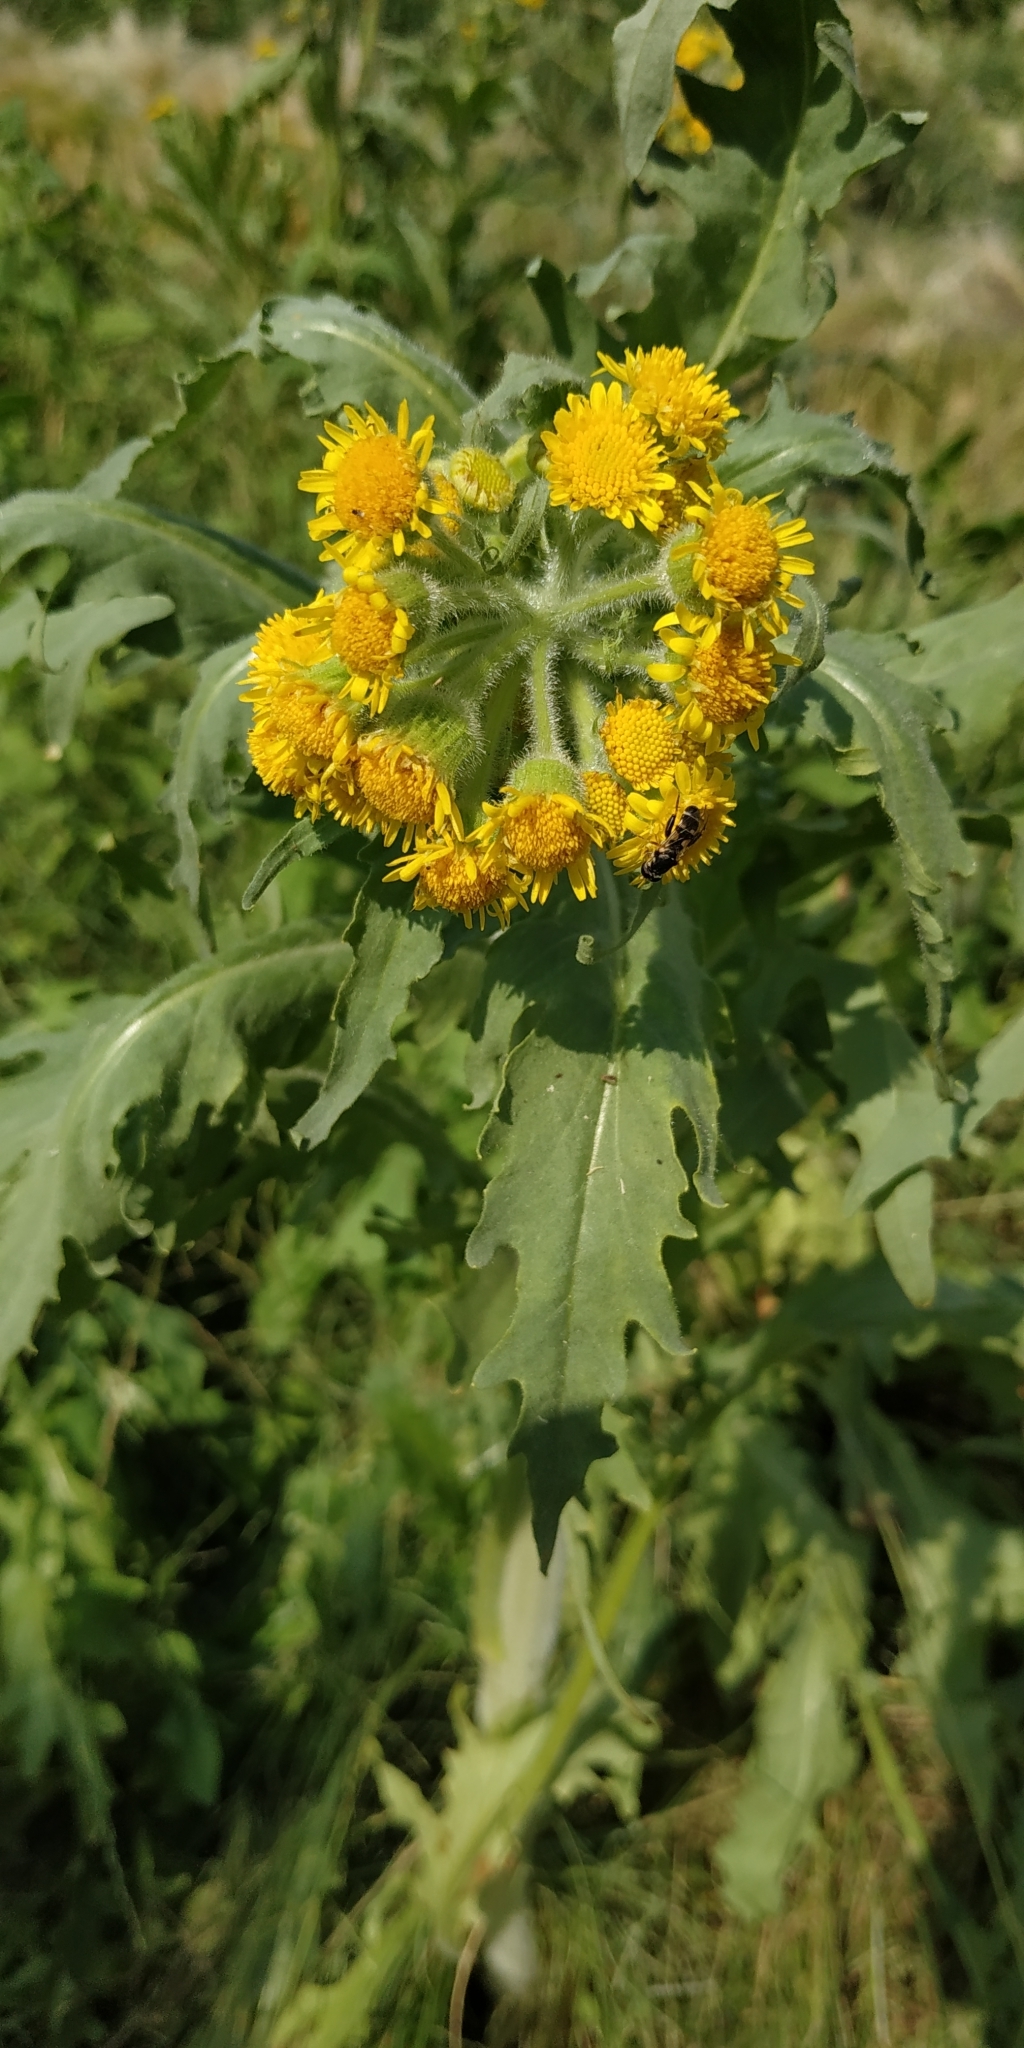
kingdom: Plantae
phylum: Tracheophyta
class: Magnoliopsida
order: Asterales
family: Asteraceae
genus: Tephroseris
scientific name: Tephroseris palustris
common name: Marsh fleawort
